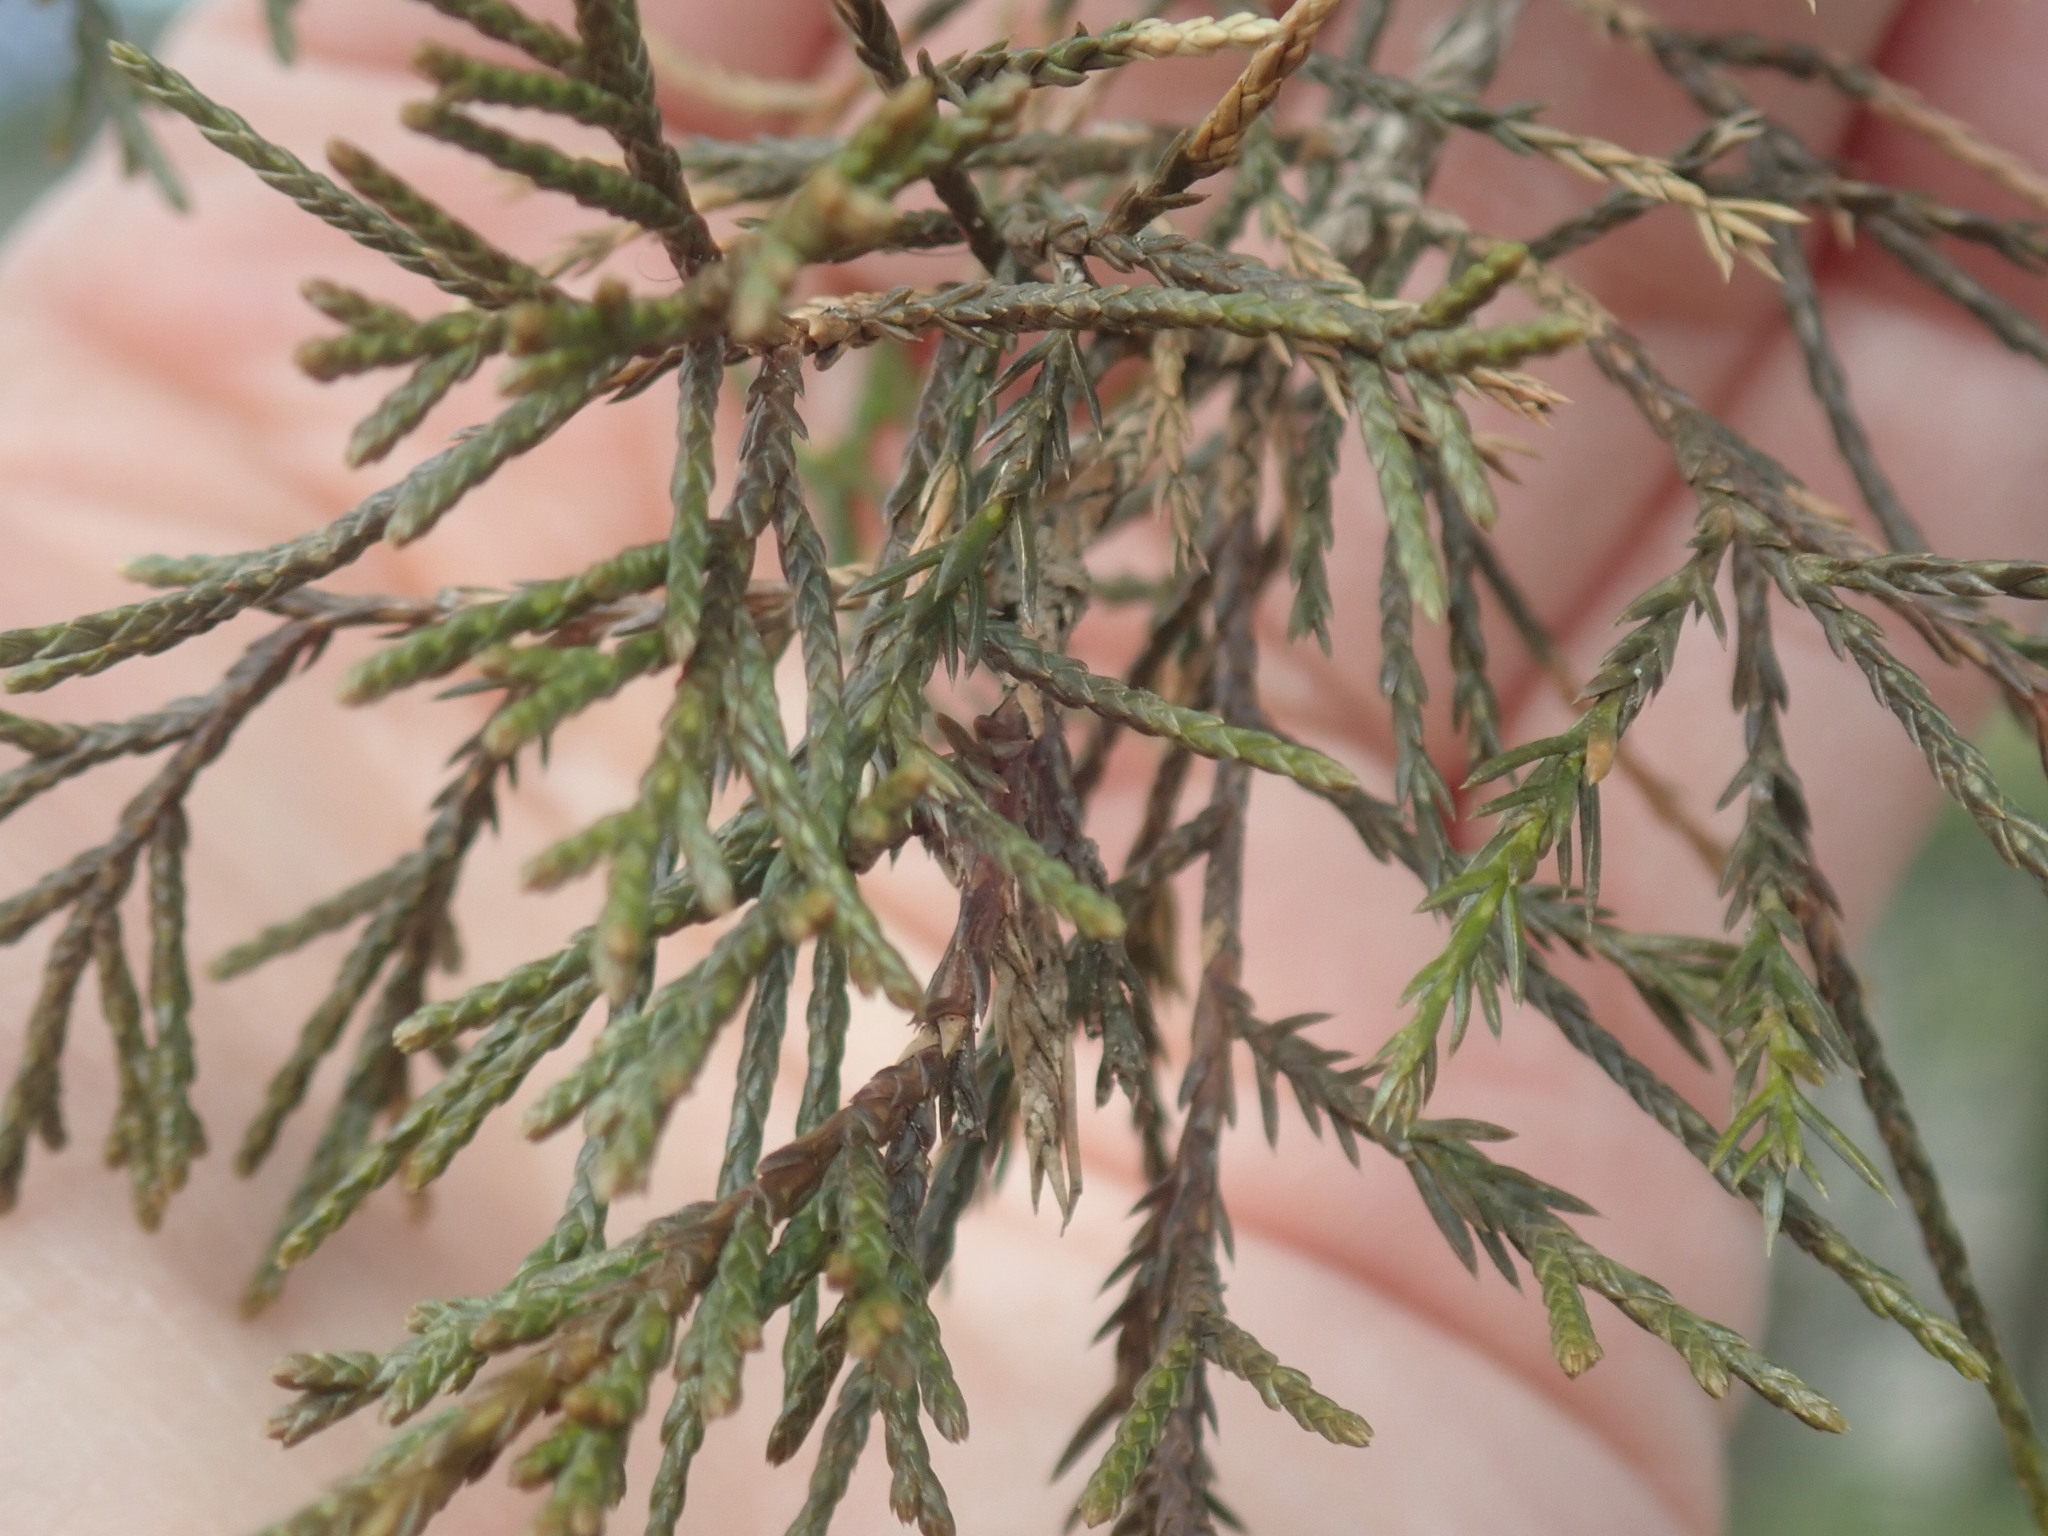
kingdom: Plantae
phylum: Tracheophyta
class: Pinopsida
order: Pinales
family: Cupressaceae
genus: Juniperus
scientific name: Juniperus virginiana
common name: Red juniper
